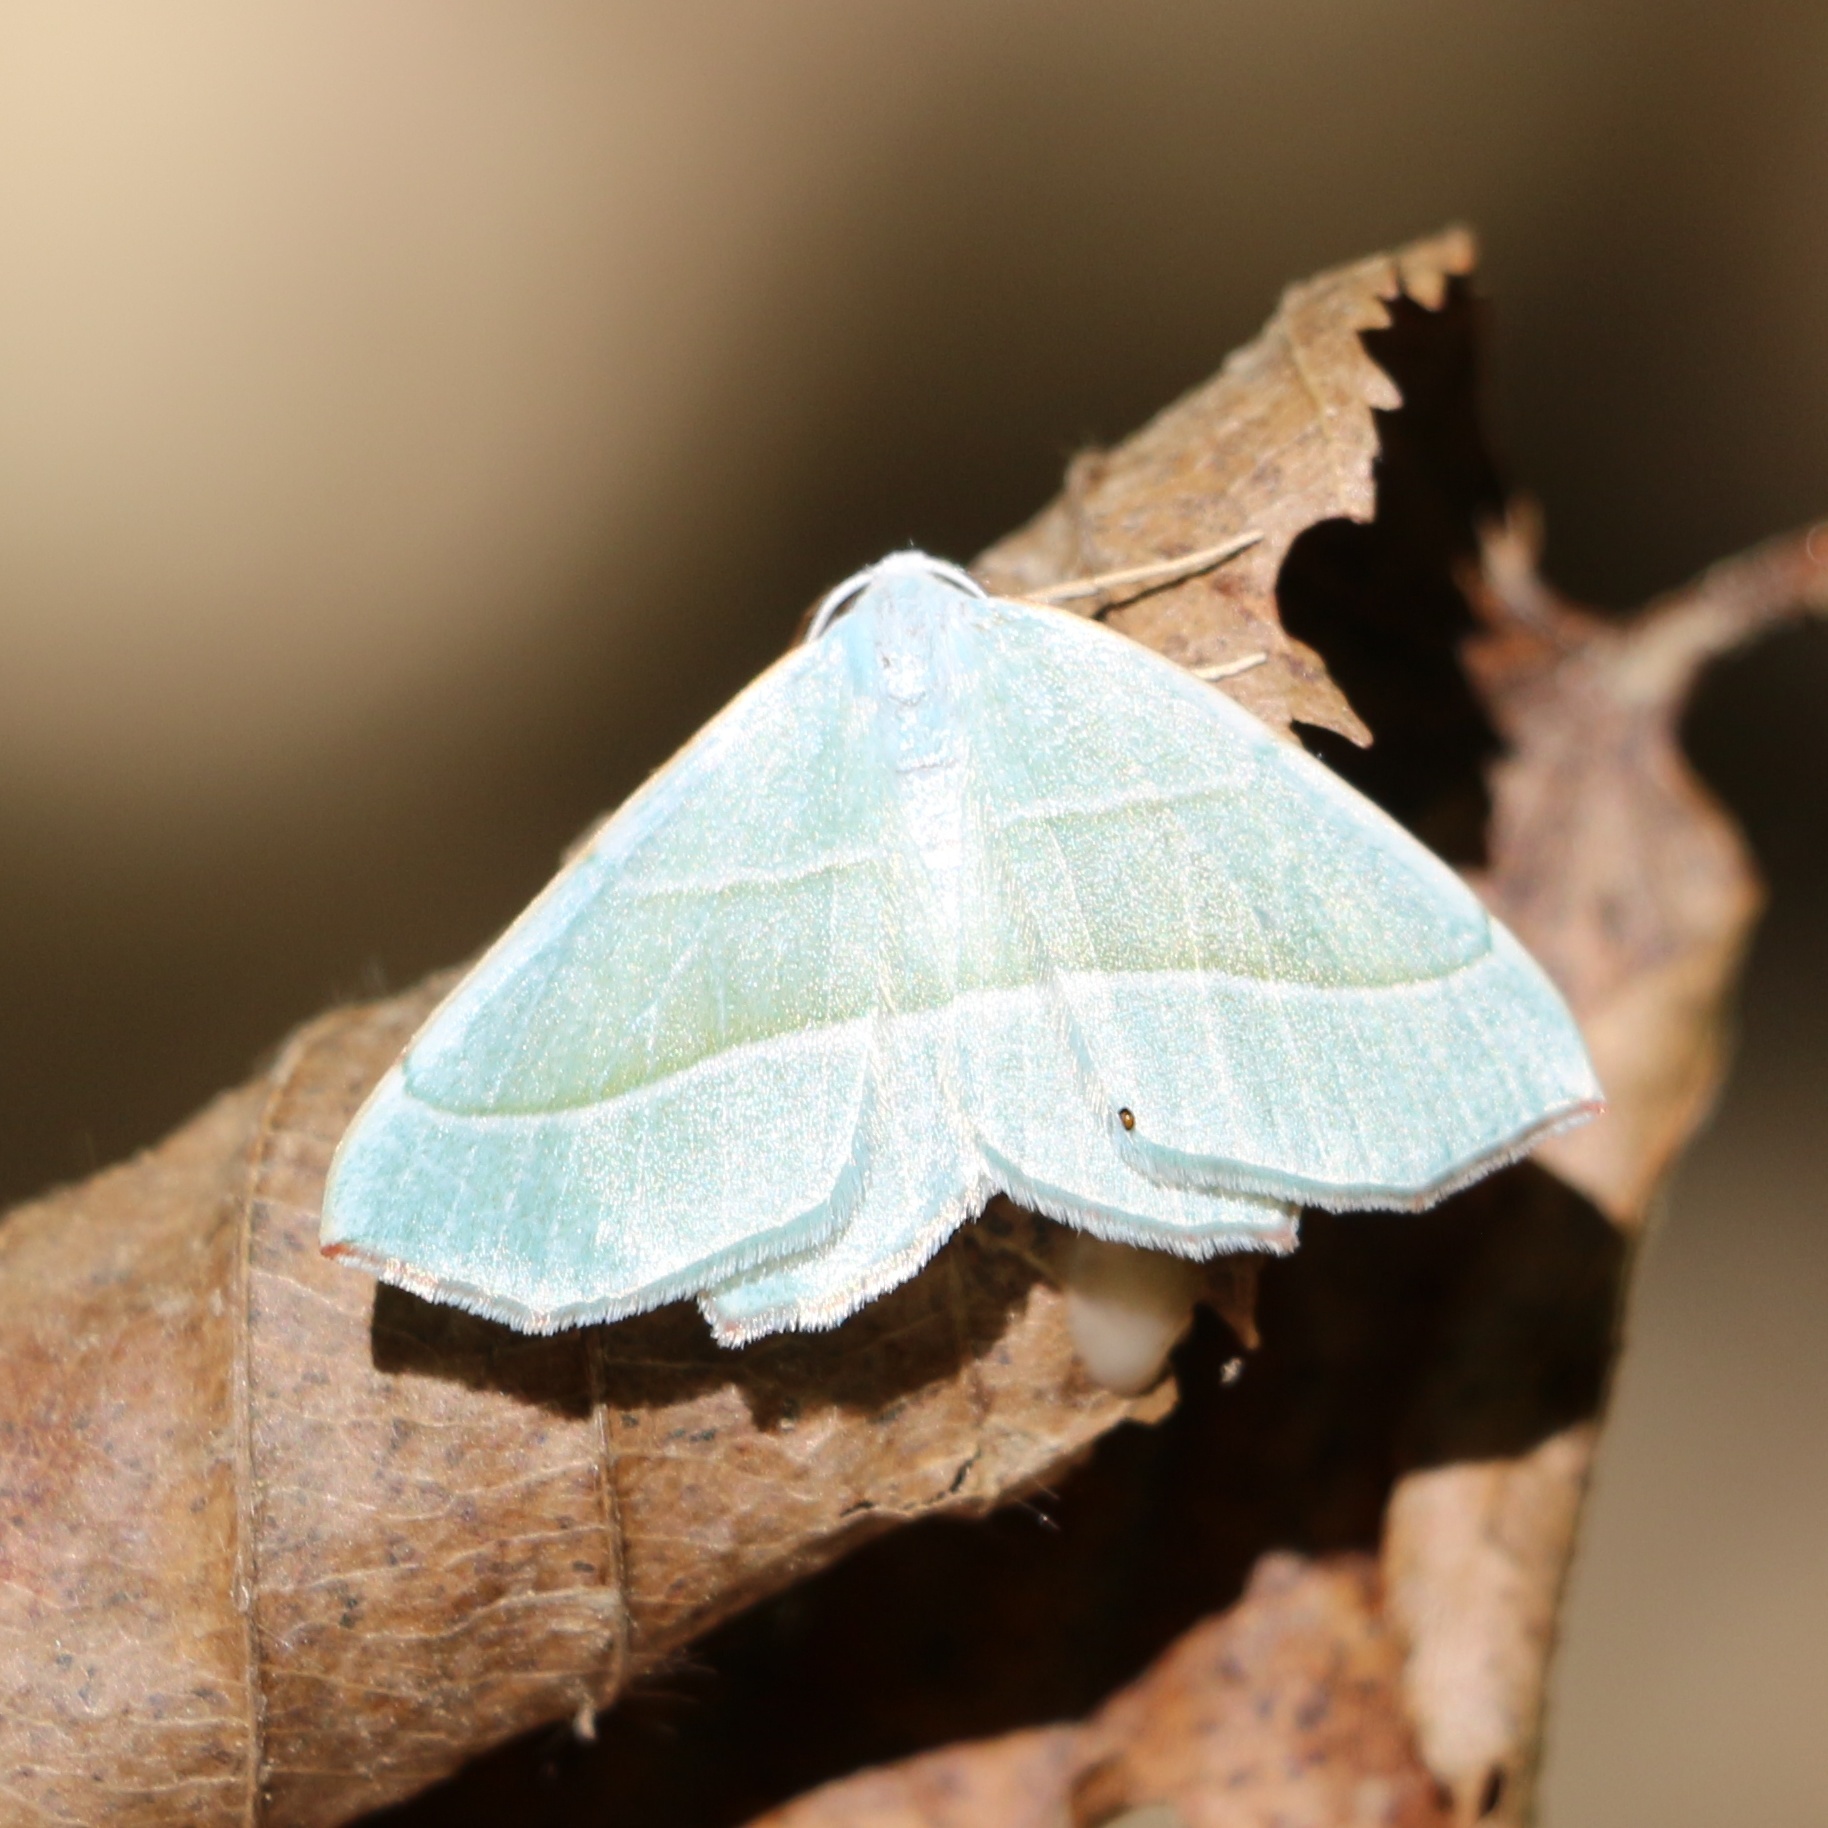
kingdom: Animalia
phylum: Arthropoda
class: Insecta
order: Lepidoptera
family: Geometridae
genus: Campaea
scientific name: Campaea margaritaria
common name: Light emerald
